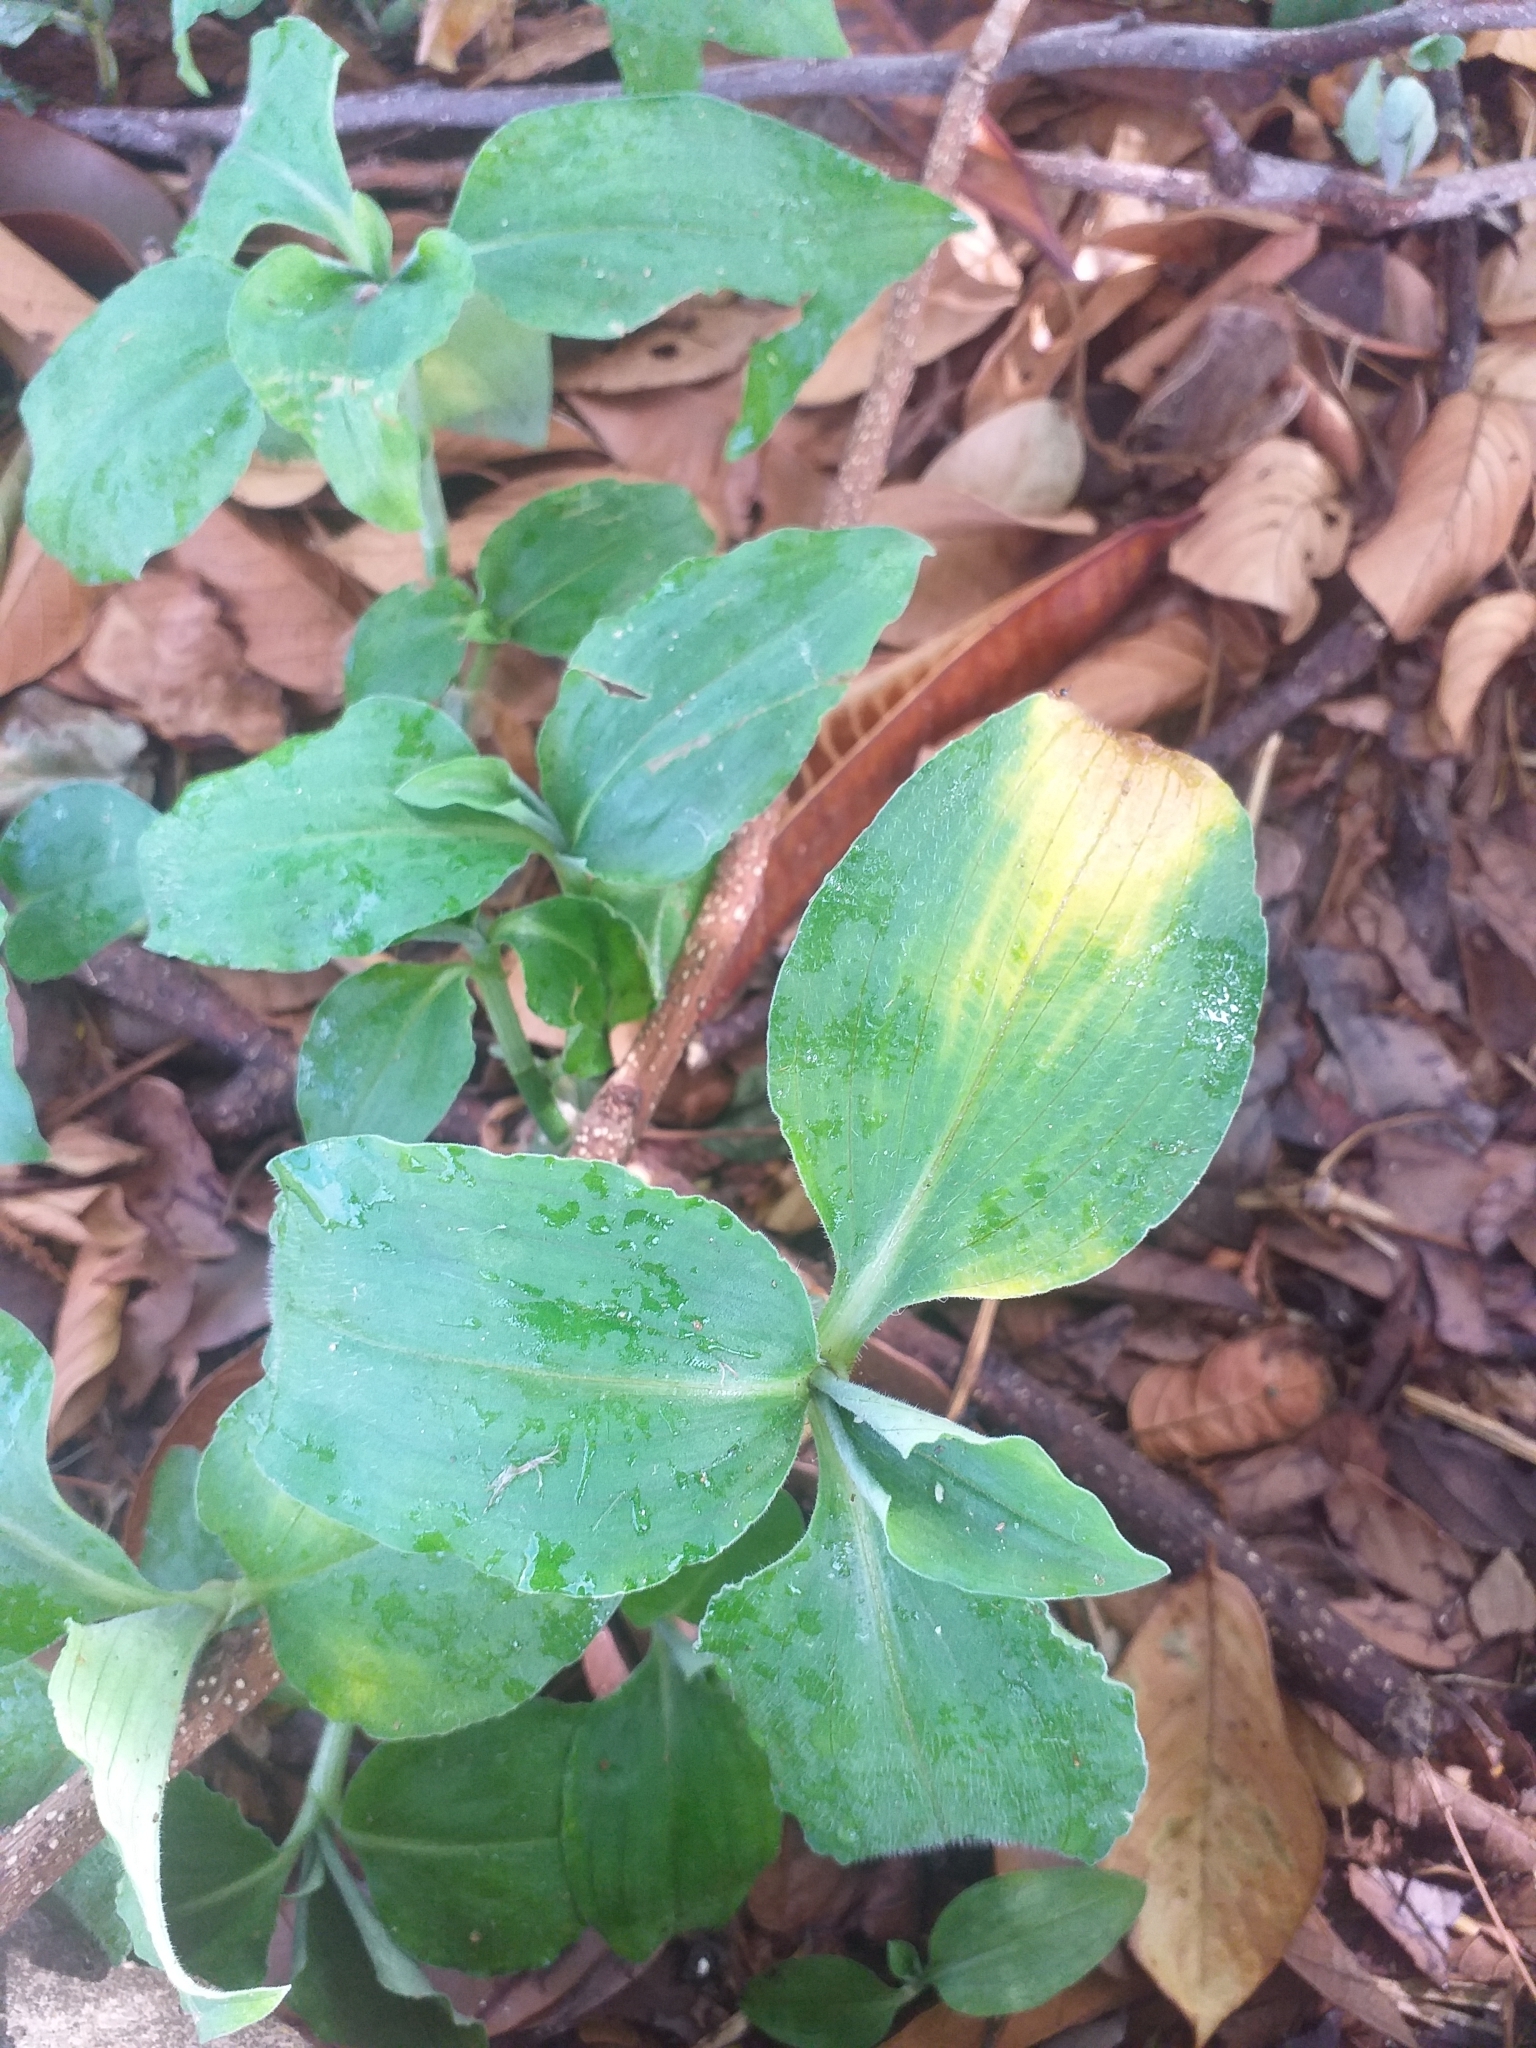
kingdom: Plantae
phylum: Tracheophyta
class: Liliopsida
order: Commelinales
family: Commelinaceae
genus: Commelina
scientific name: Commelina benghalensis
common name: Jio
